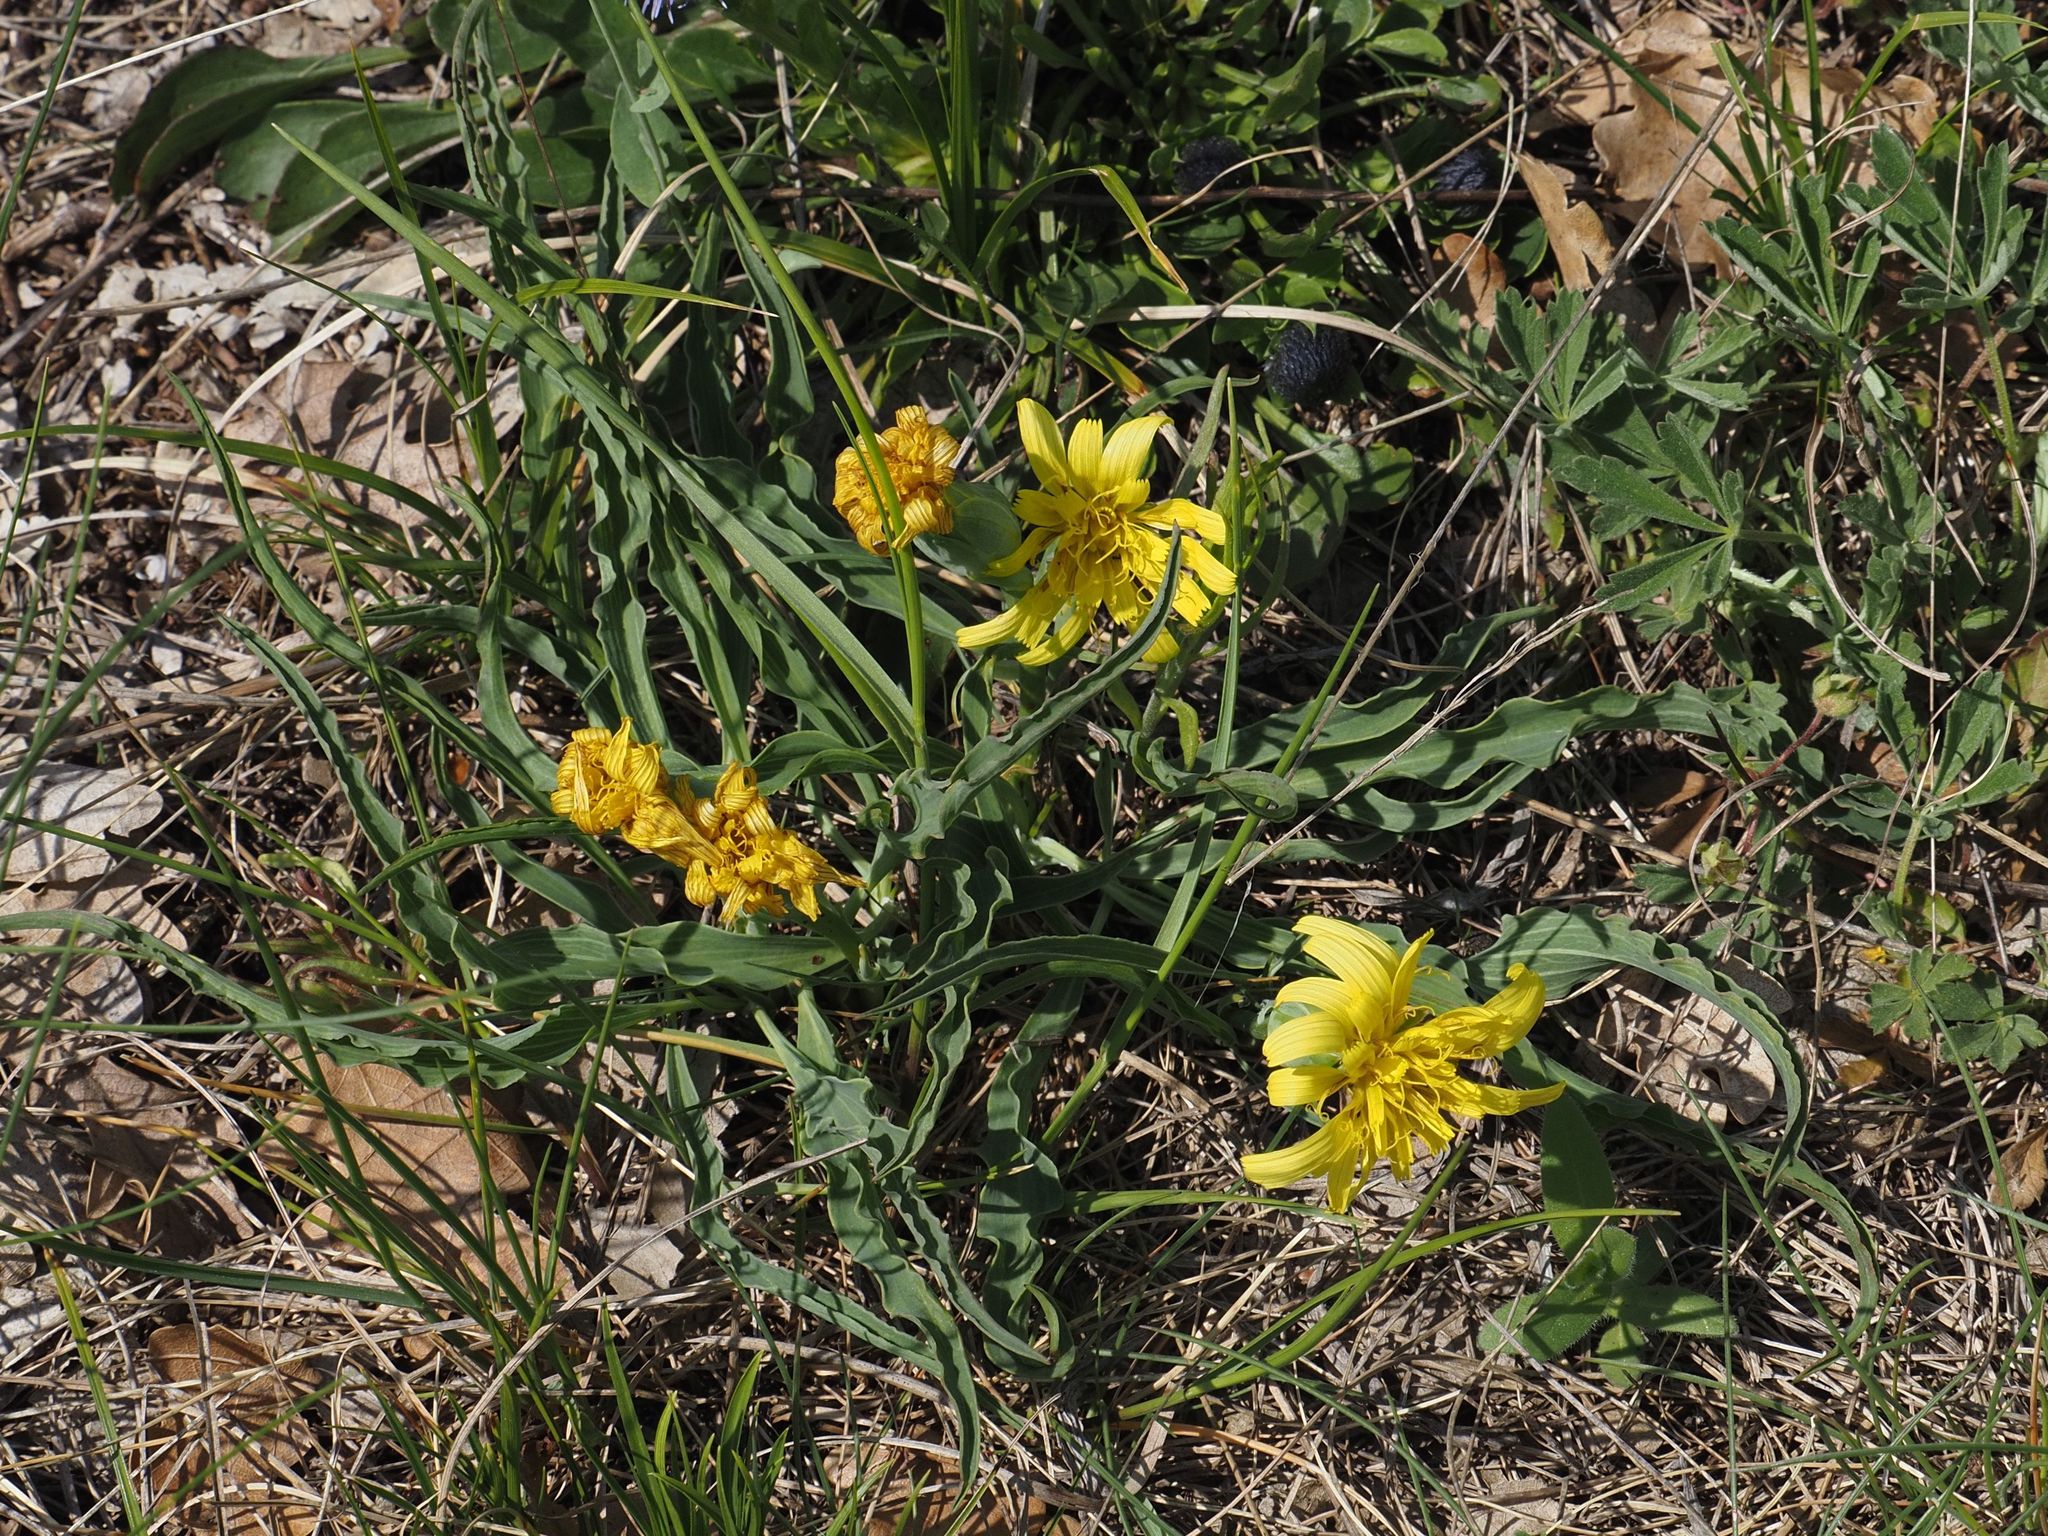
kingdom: Plantae
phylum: Tracheophyta
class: Magnoliopsida
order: Asterales
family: Asteraceae
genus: Takhtajaniantha
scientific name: Takhtajaniantha austriaca
